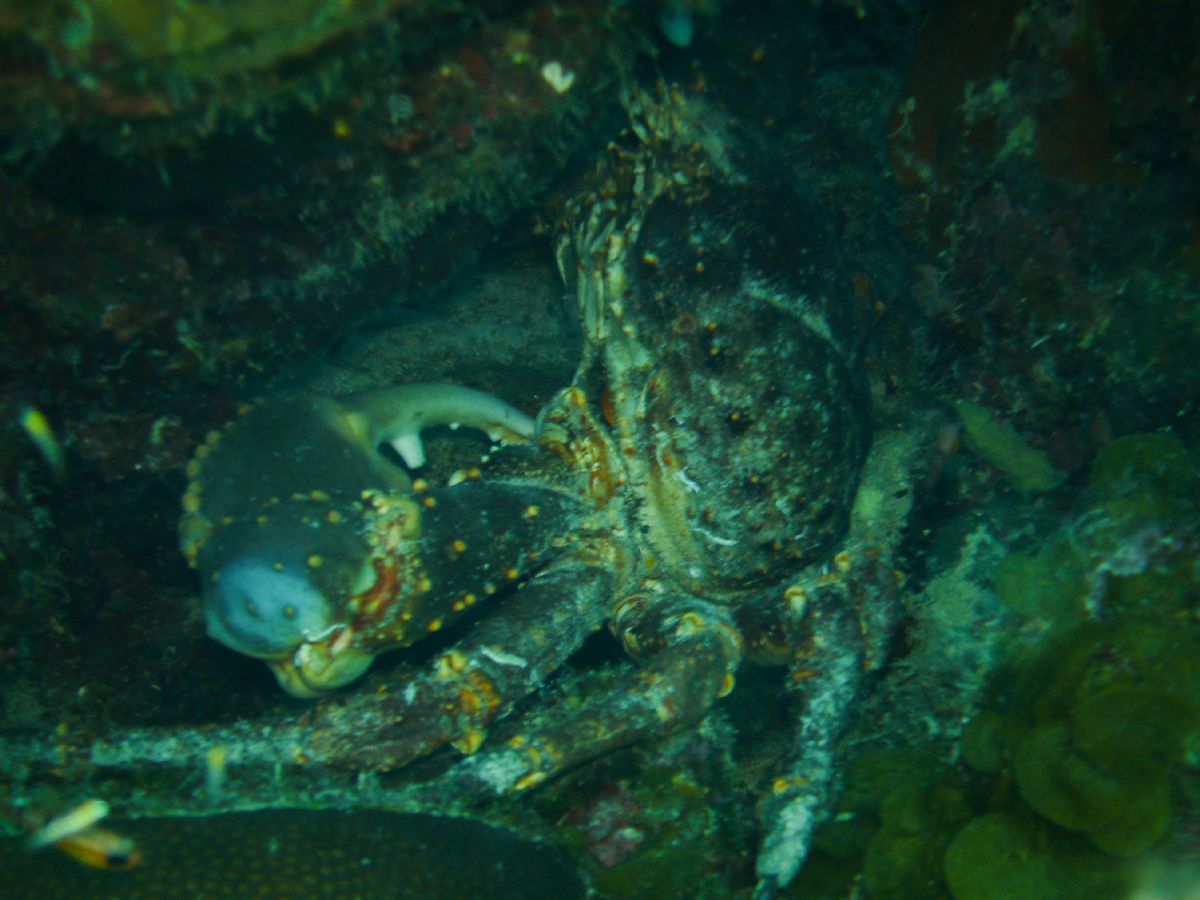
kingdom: Animalia
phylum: Arthropoda
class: Malacostraca
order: Decapoda
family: Mithracidae
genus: Maguimithrax
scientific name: Maguimithrax spinosissimus
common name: Spiny spider crab
